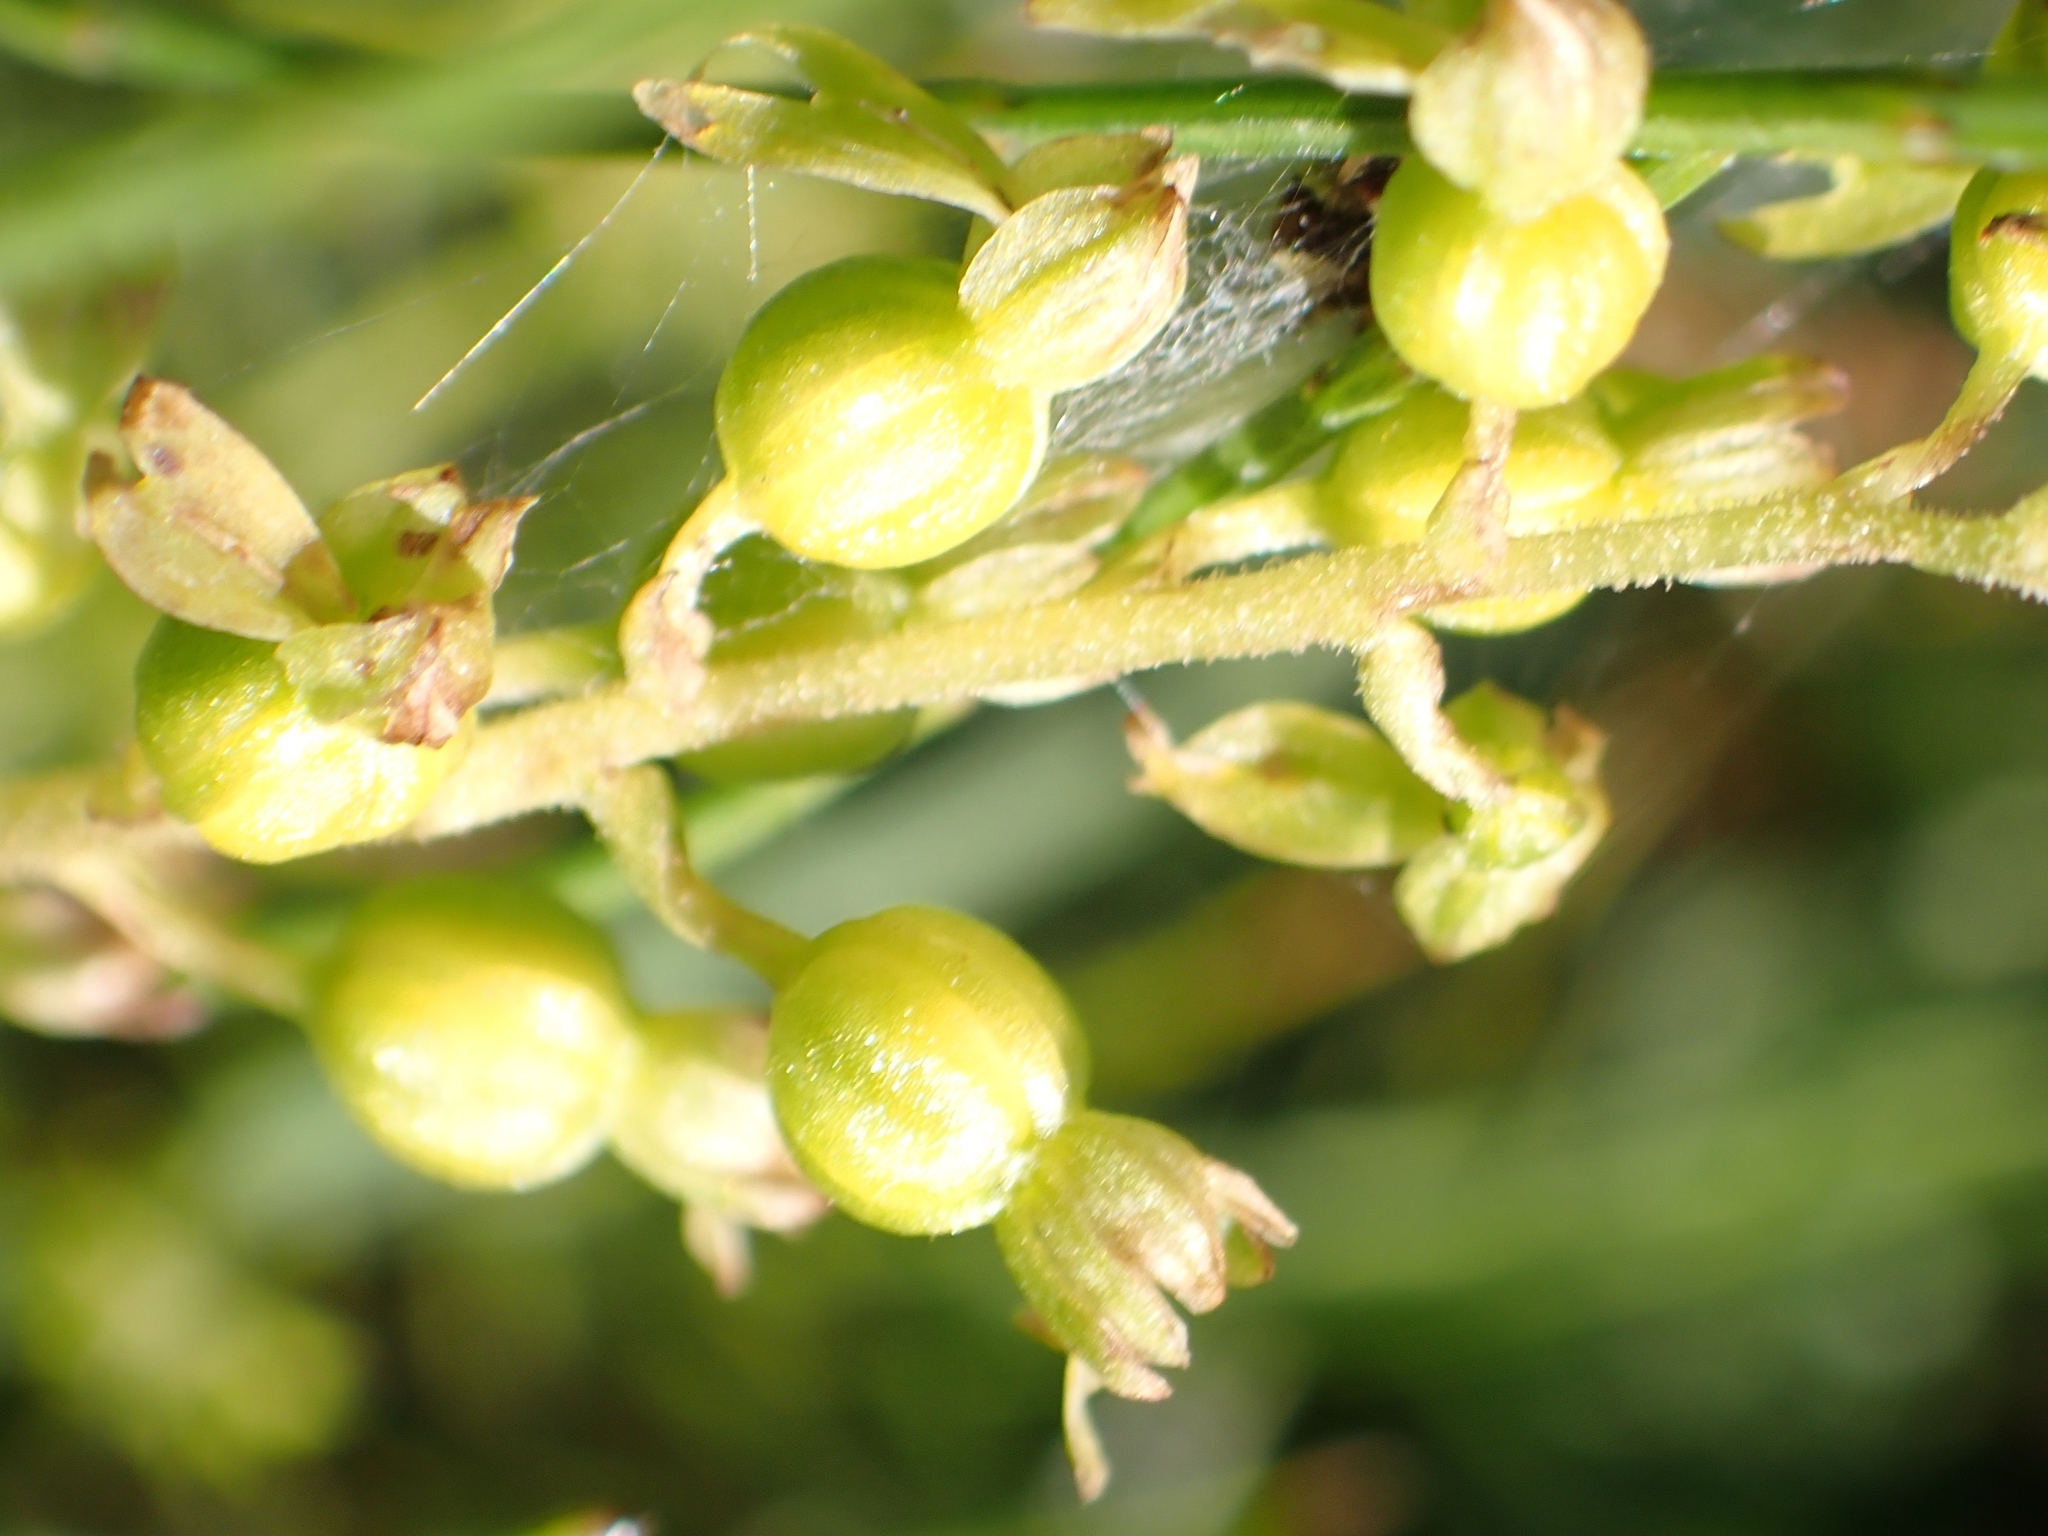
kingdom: Plantae
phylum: Tracheophyta
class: Liliopsida
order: Asparagales
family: Orchidaceae
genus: Neottia
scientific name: Neottia ovata
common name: Common twayblade
